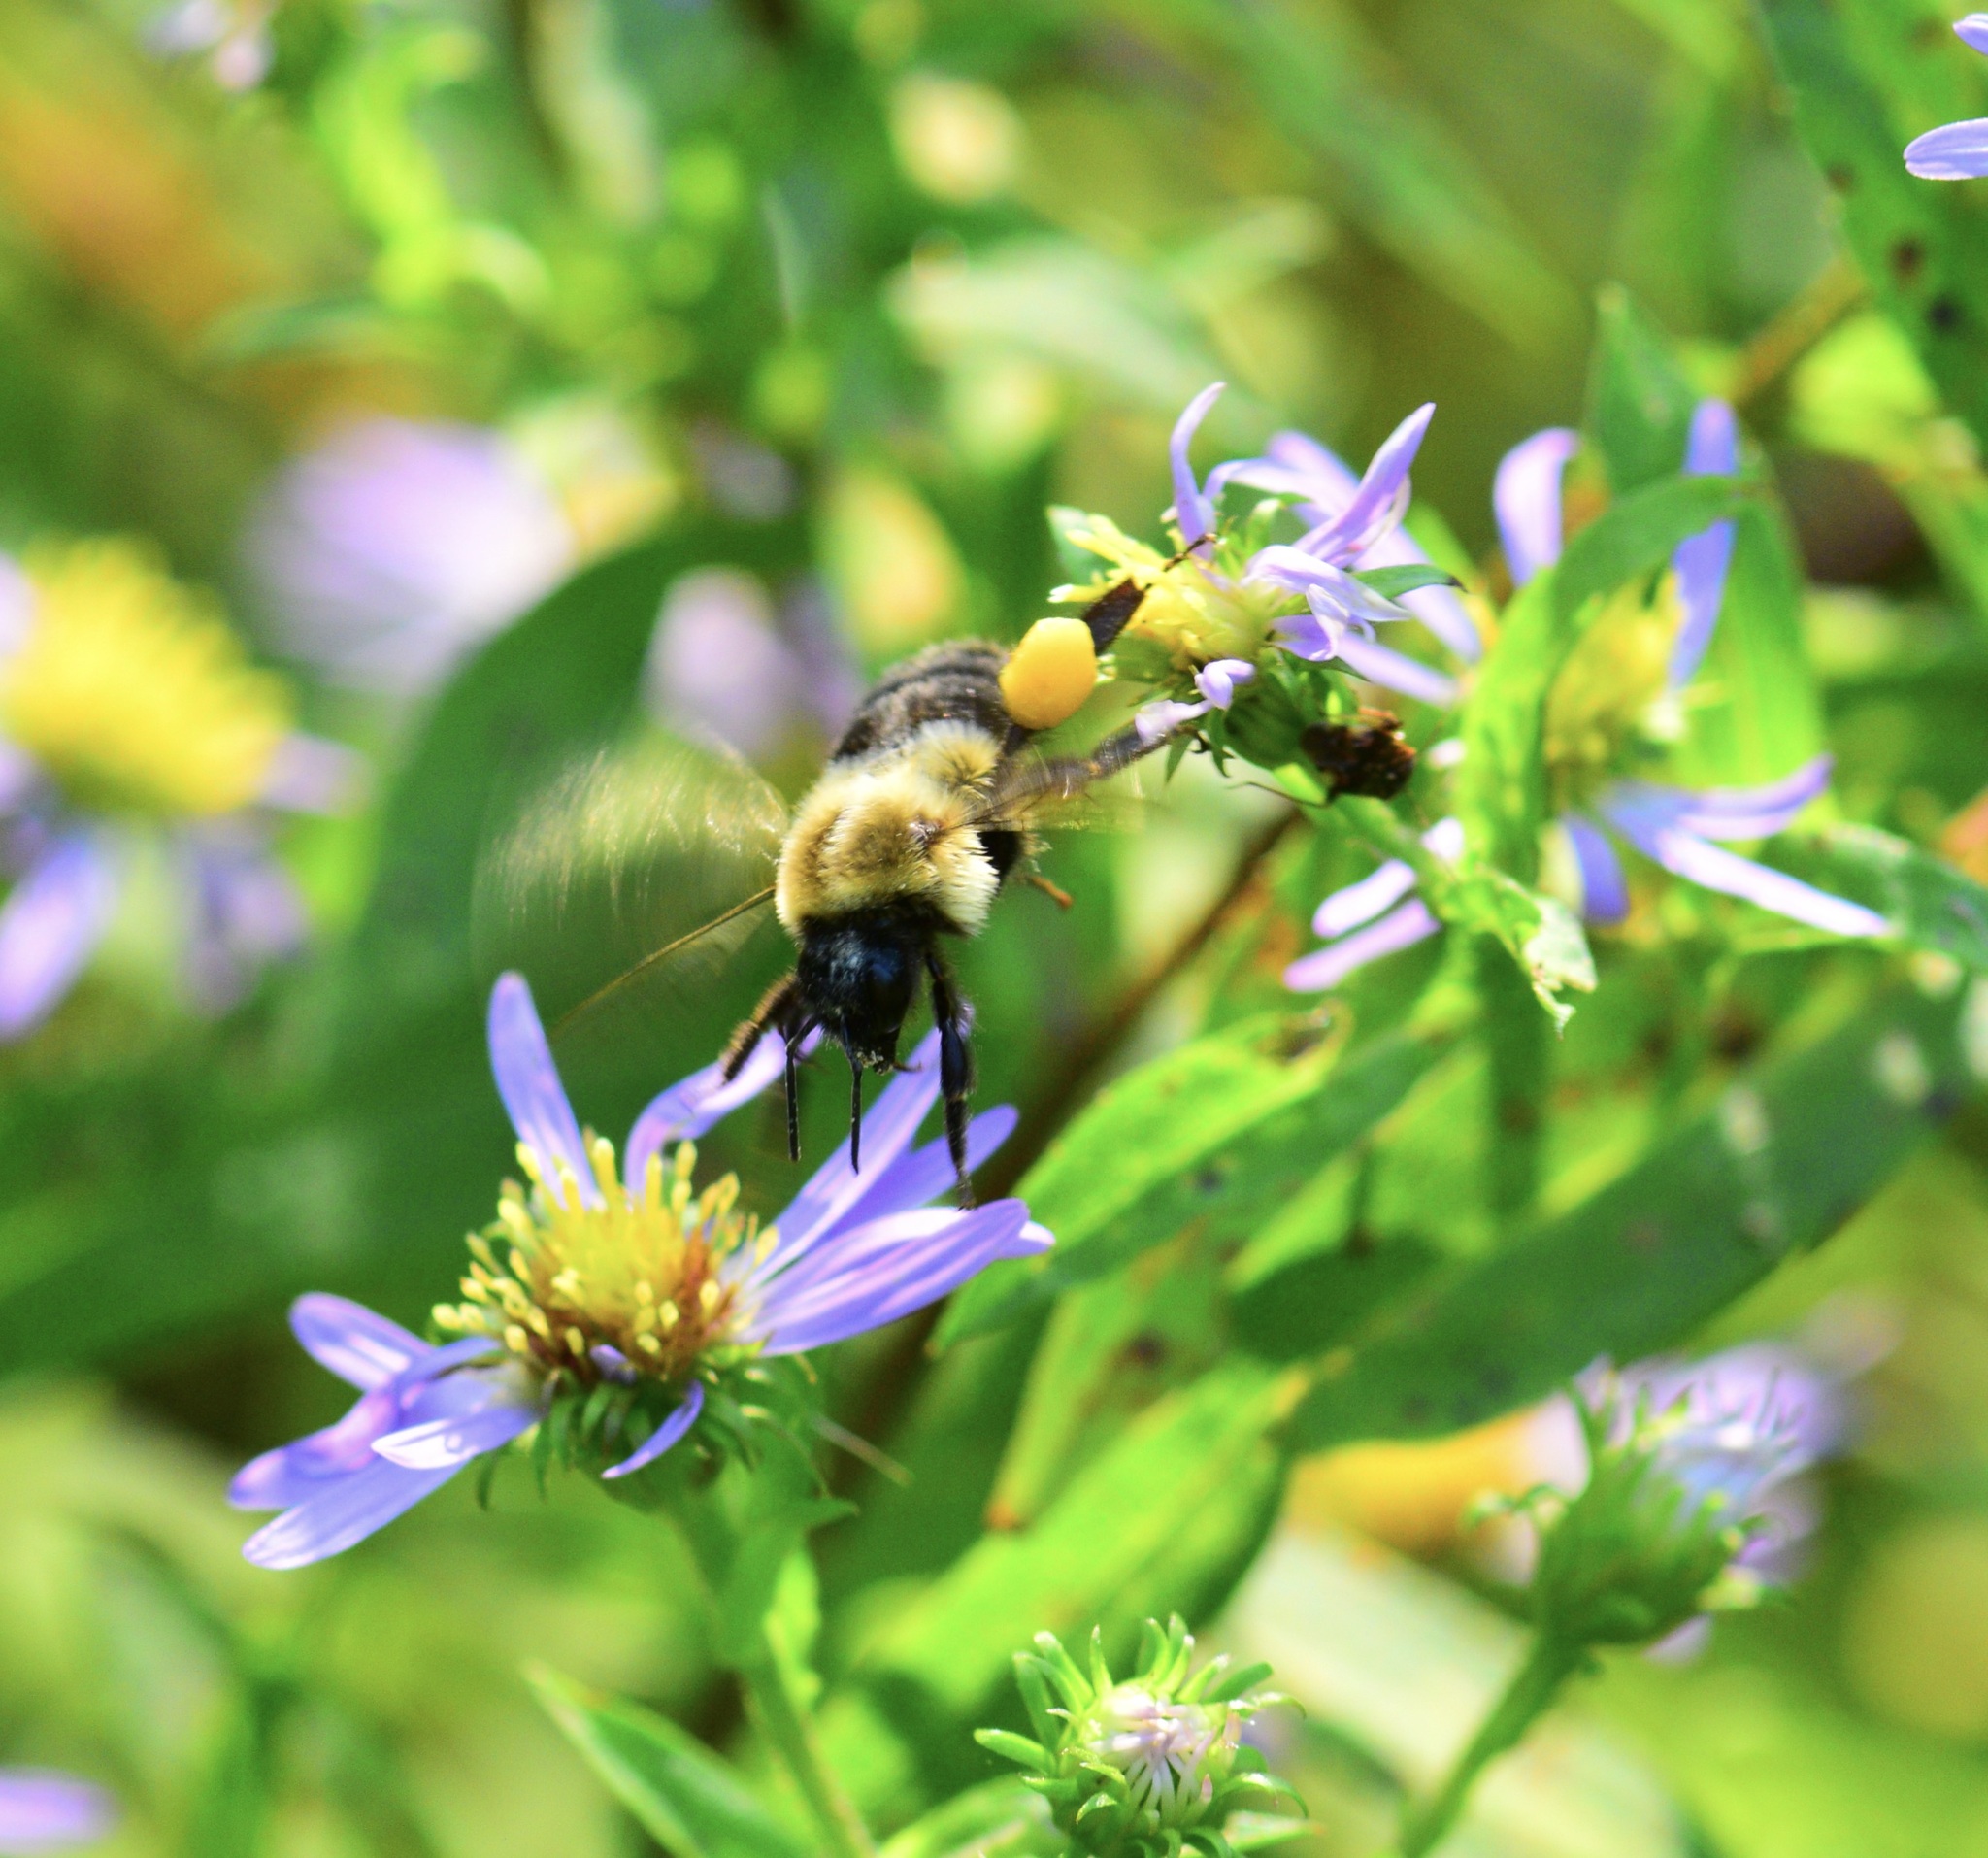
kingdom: Animalia
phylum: Arthropoda
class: Insecta
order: Hymenoptera
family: Apidae
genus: Bombus
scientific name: Bombus impatiens
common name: Common eastern bumble bee
